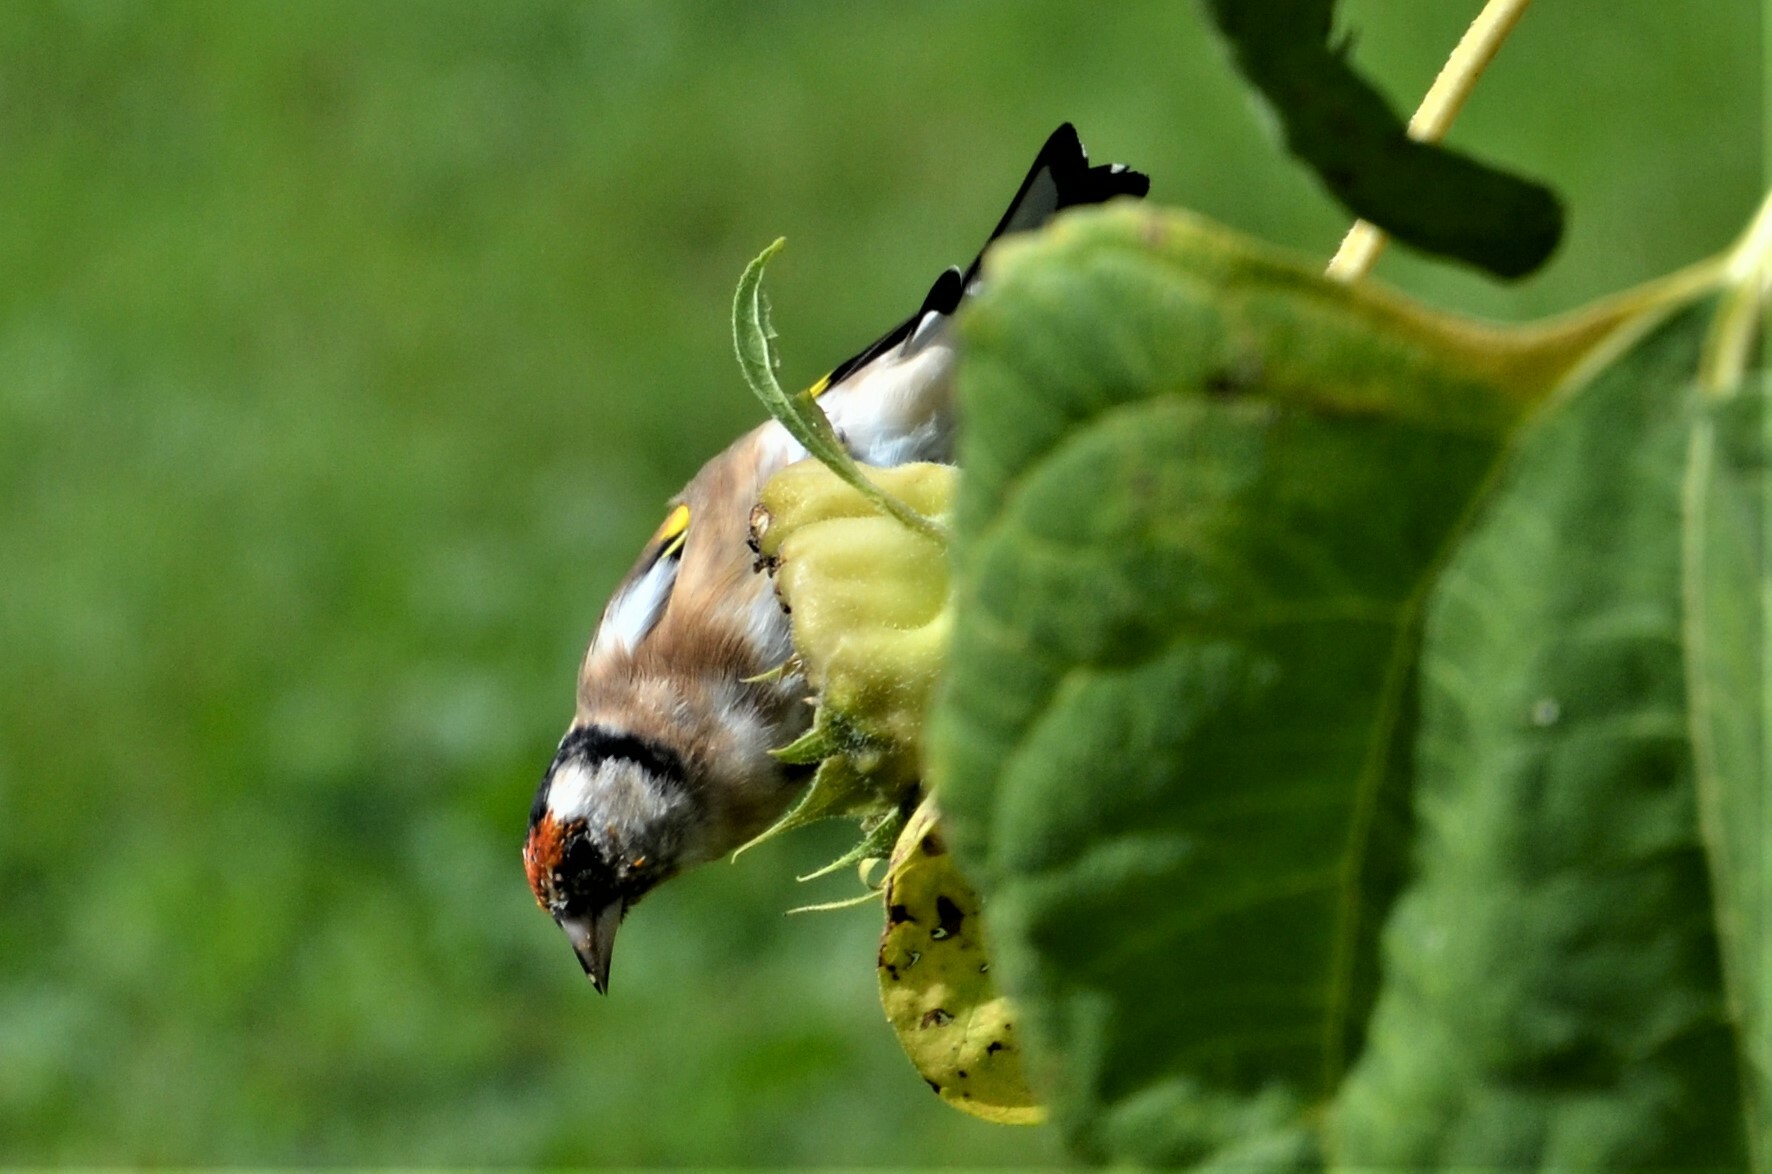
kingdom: Animalia
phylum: Chordata
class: Aves
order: Passeriformes
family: Fringillidae
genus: Carduelis
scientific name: Carduelis carduelis
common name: European goldfinch
